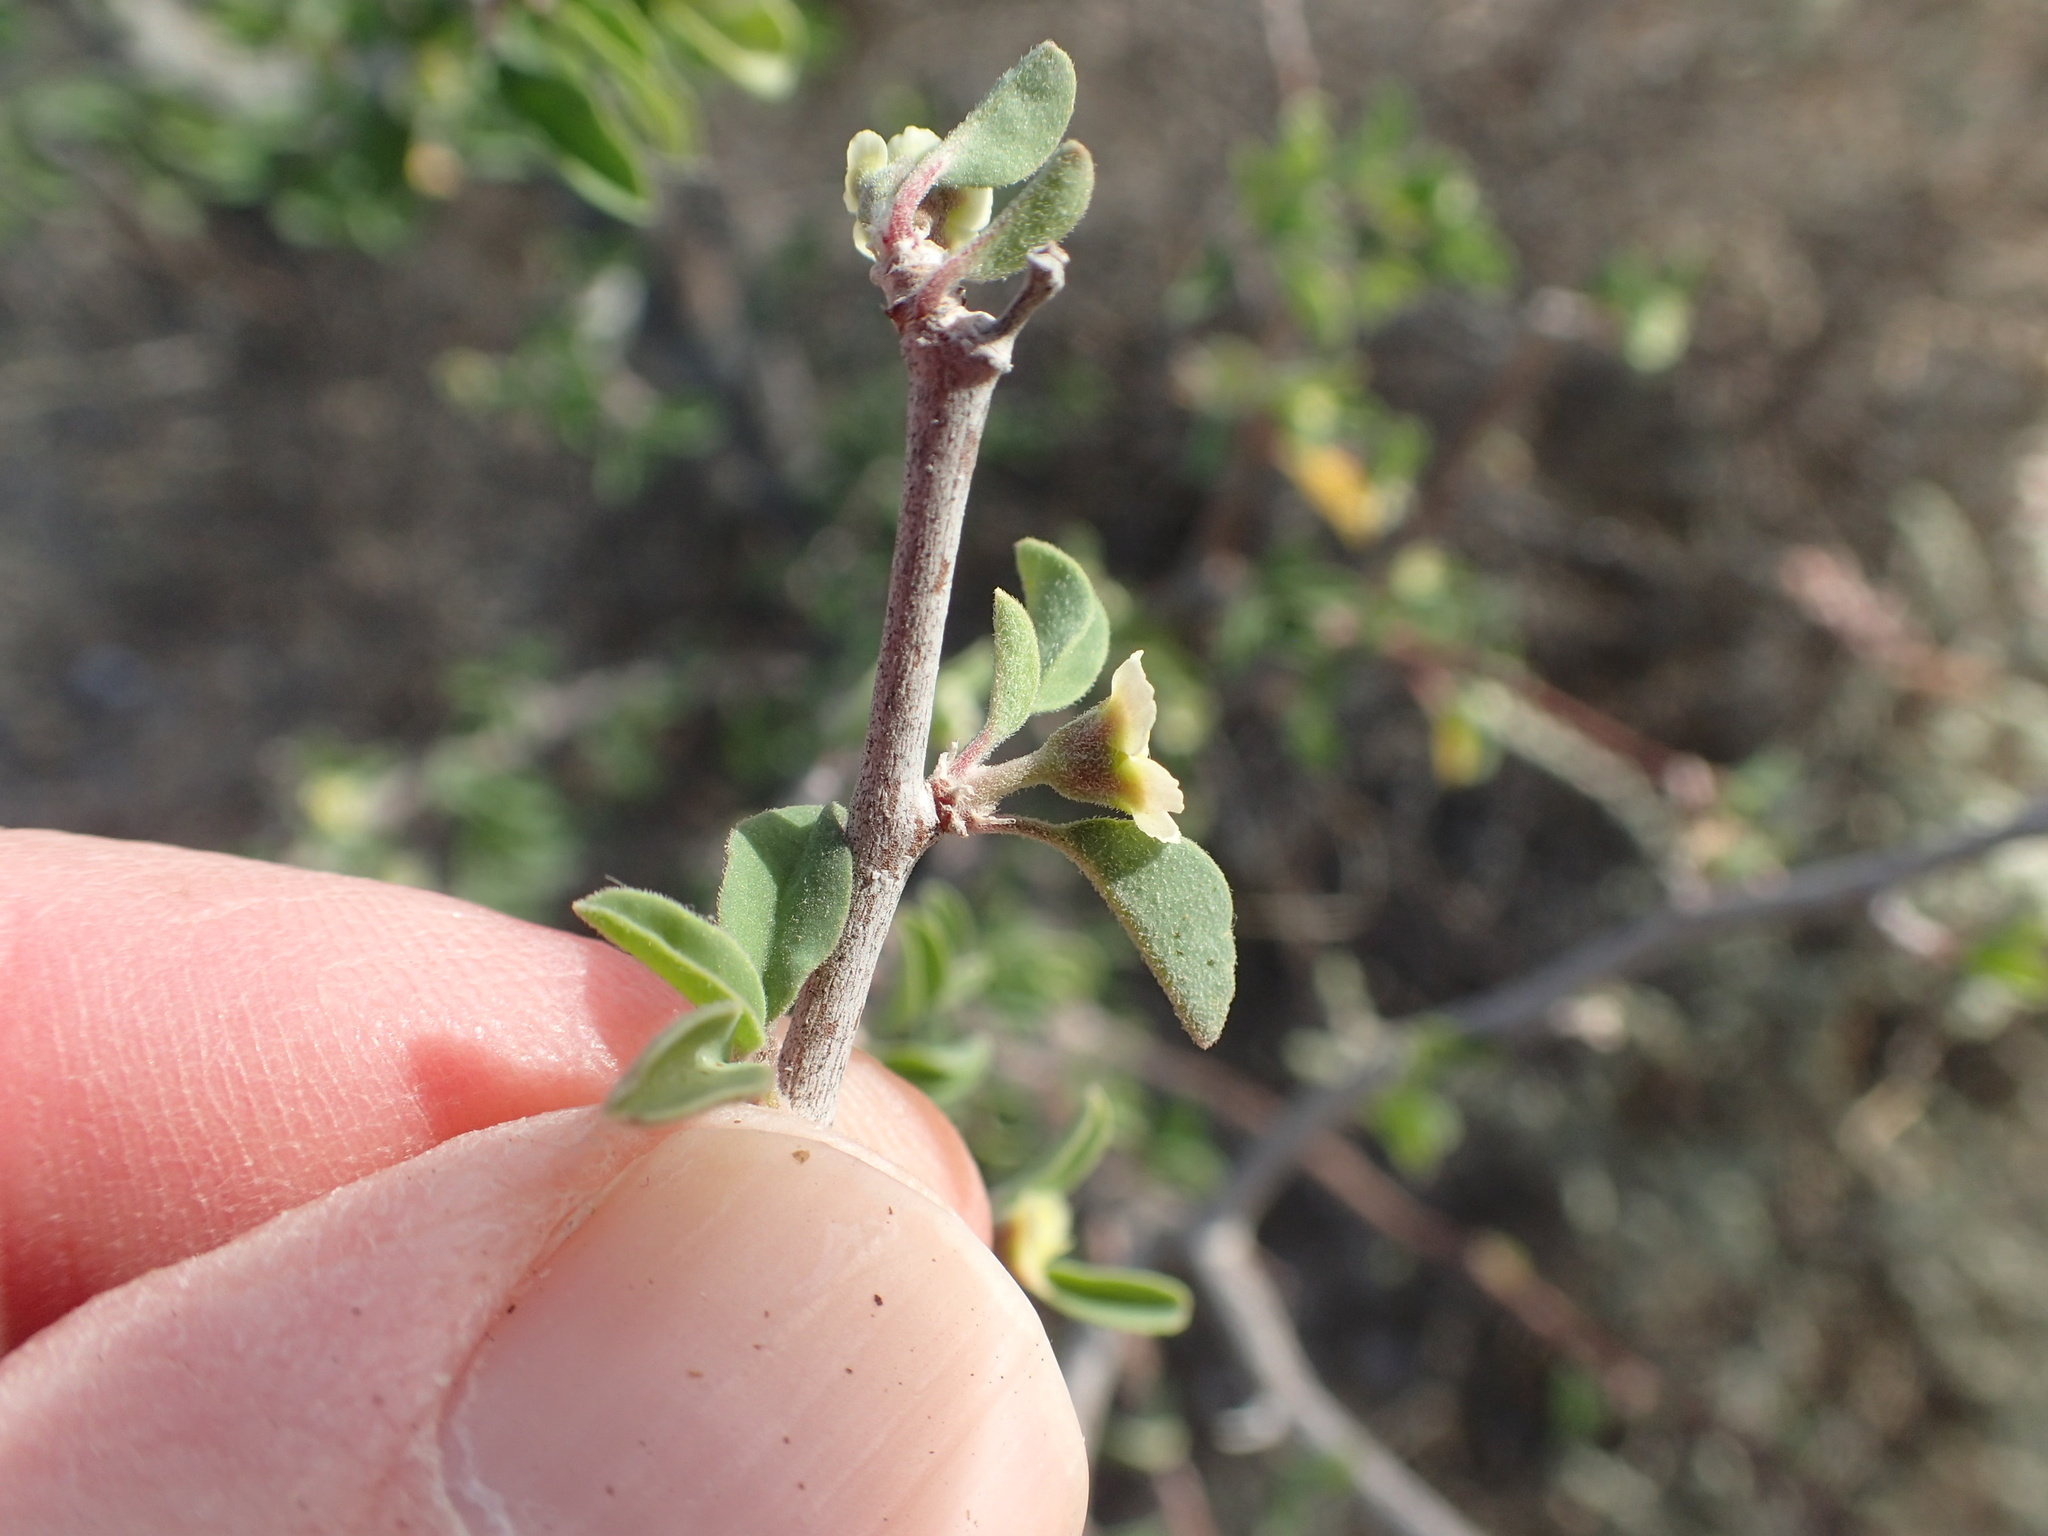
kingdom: Plantae
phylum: Tracheophyta
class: Magnoliopsida
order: Malpighiales
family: Euphorbiaceae
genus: Euphorbia
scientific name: Euphorbia misera
